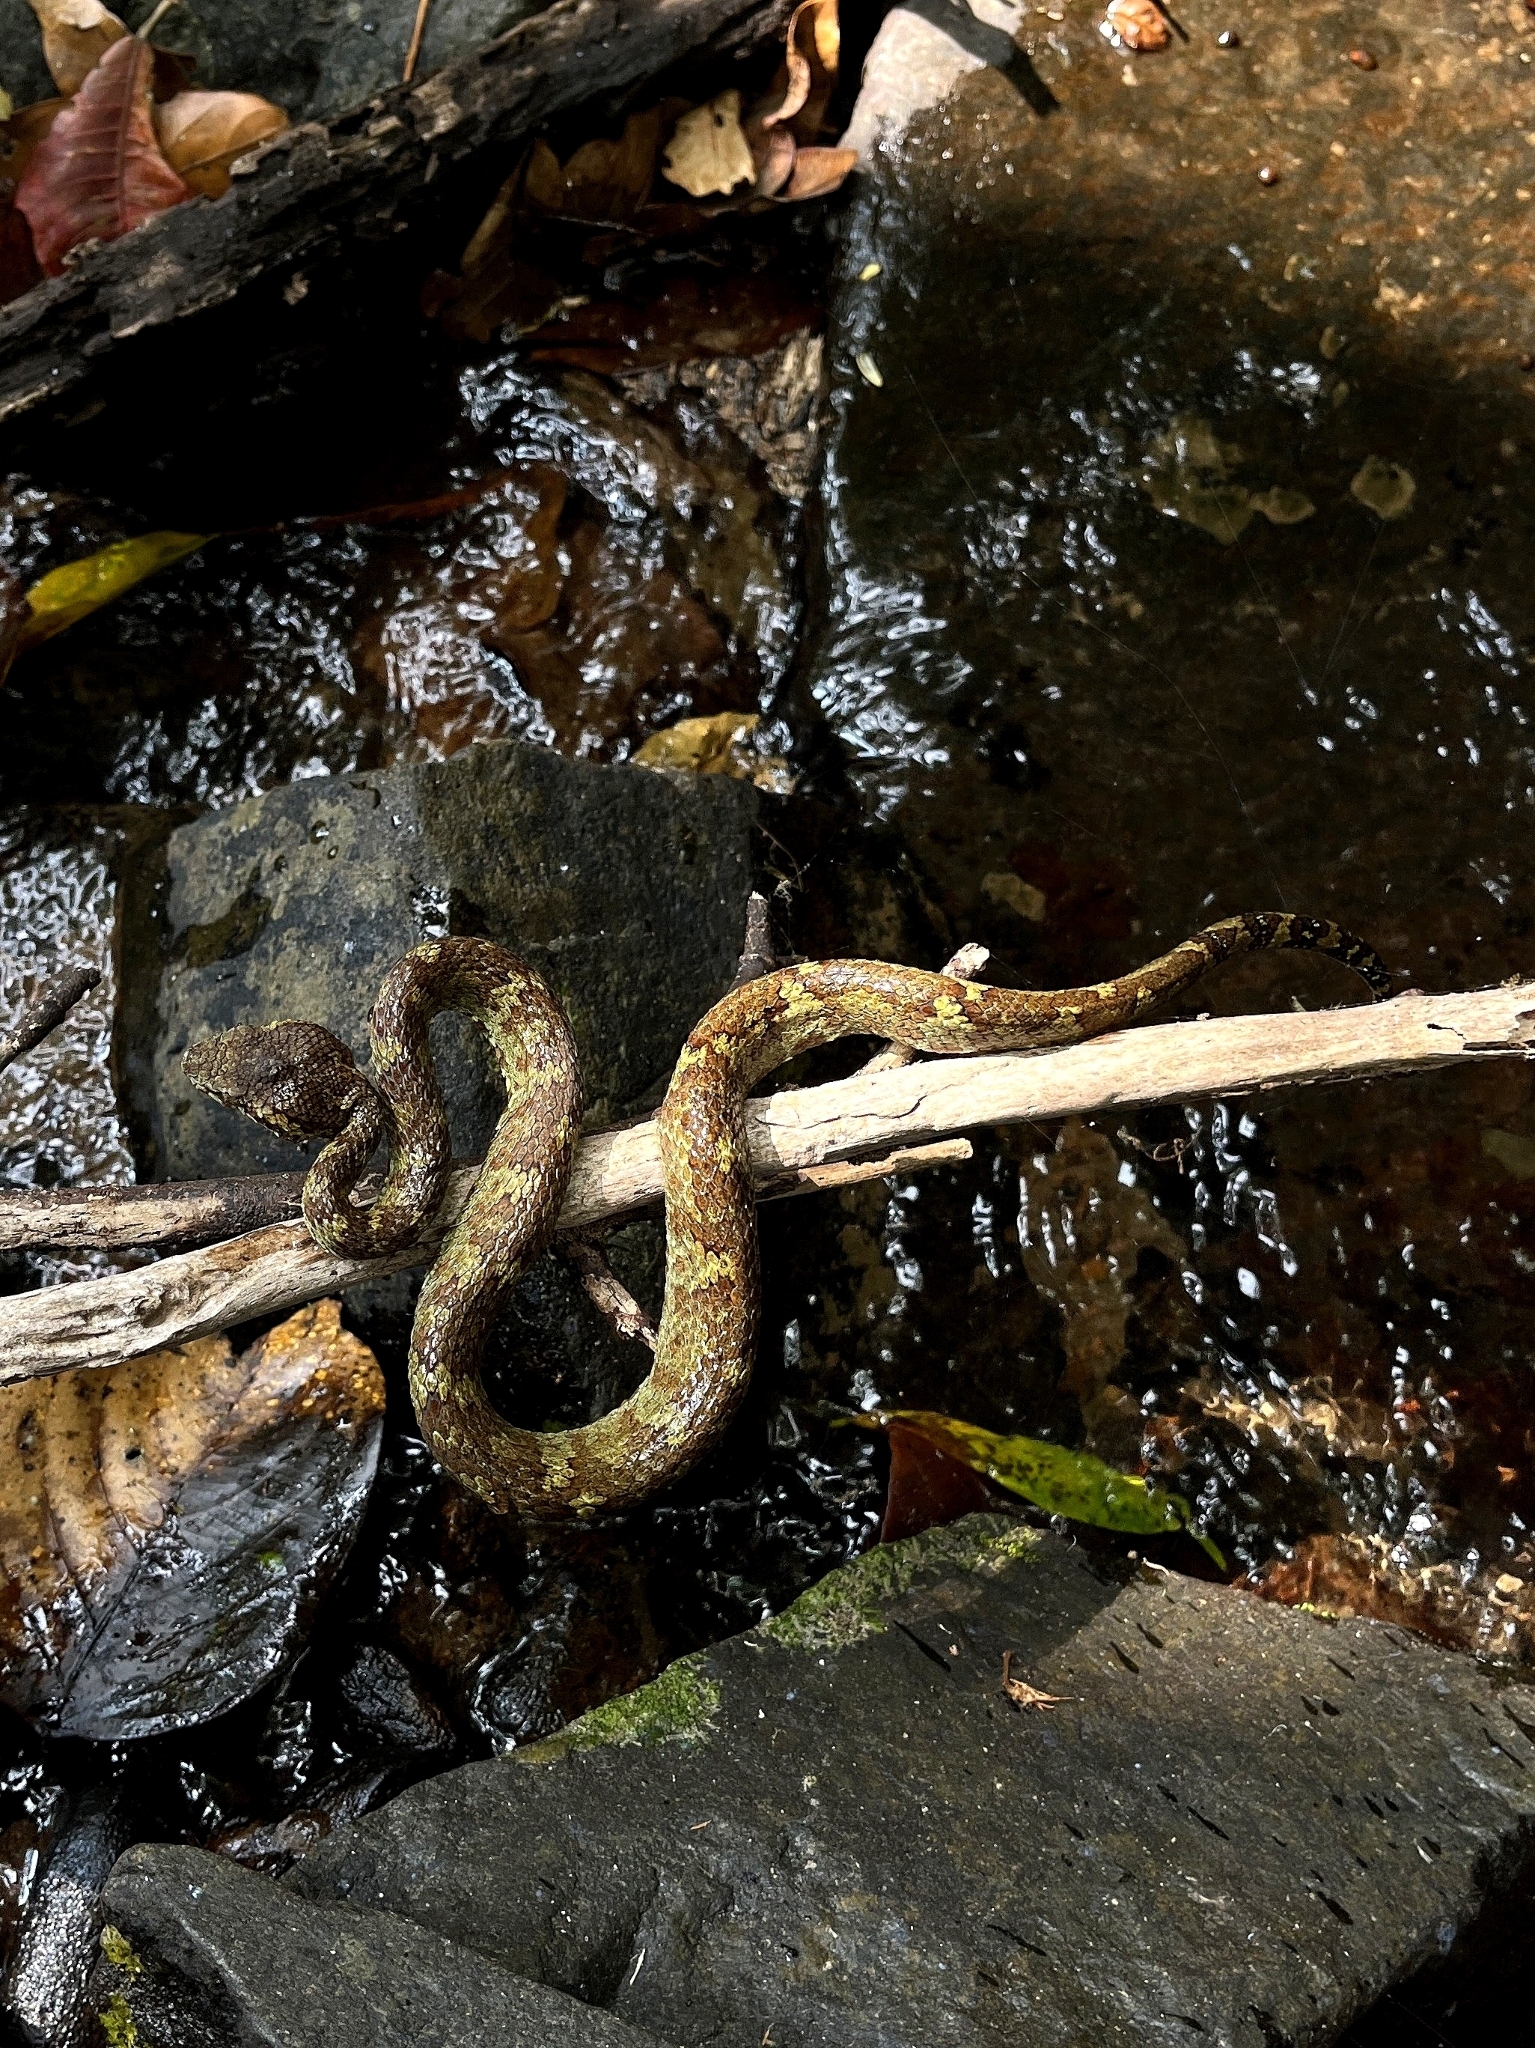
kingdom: Animalia
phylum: Chordata
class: Squamata
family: Viperidae
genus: Craspedocephalus
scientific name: Craspedocephalus malabaricus
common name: Malabarian pit viper
